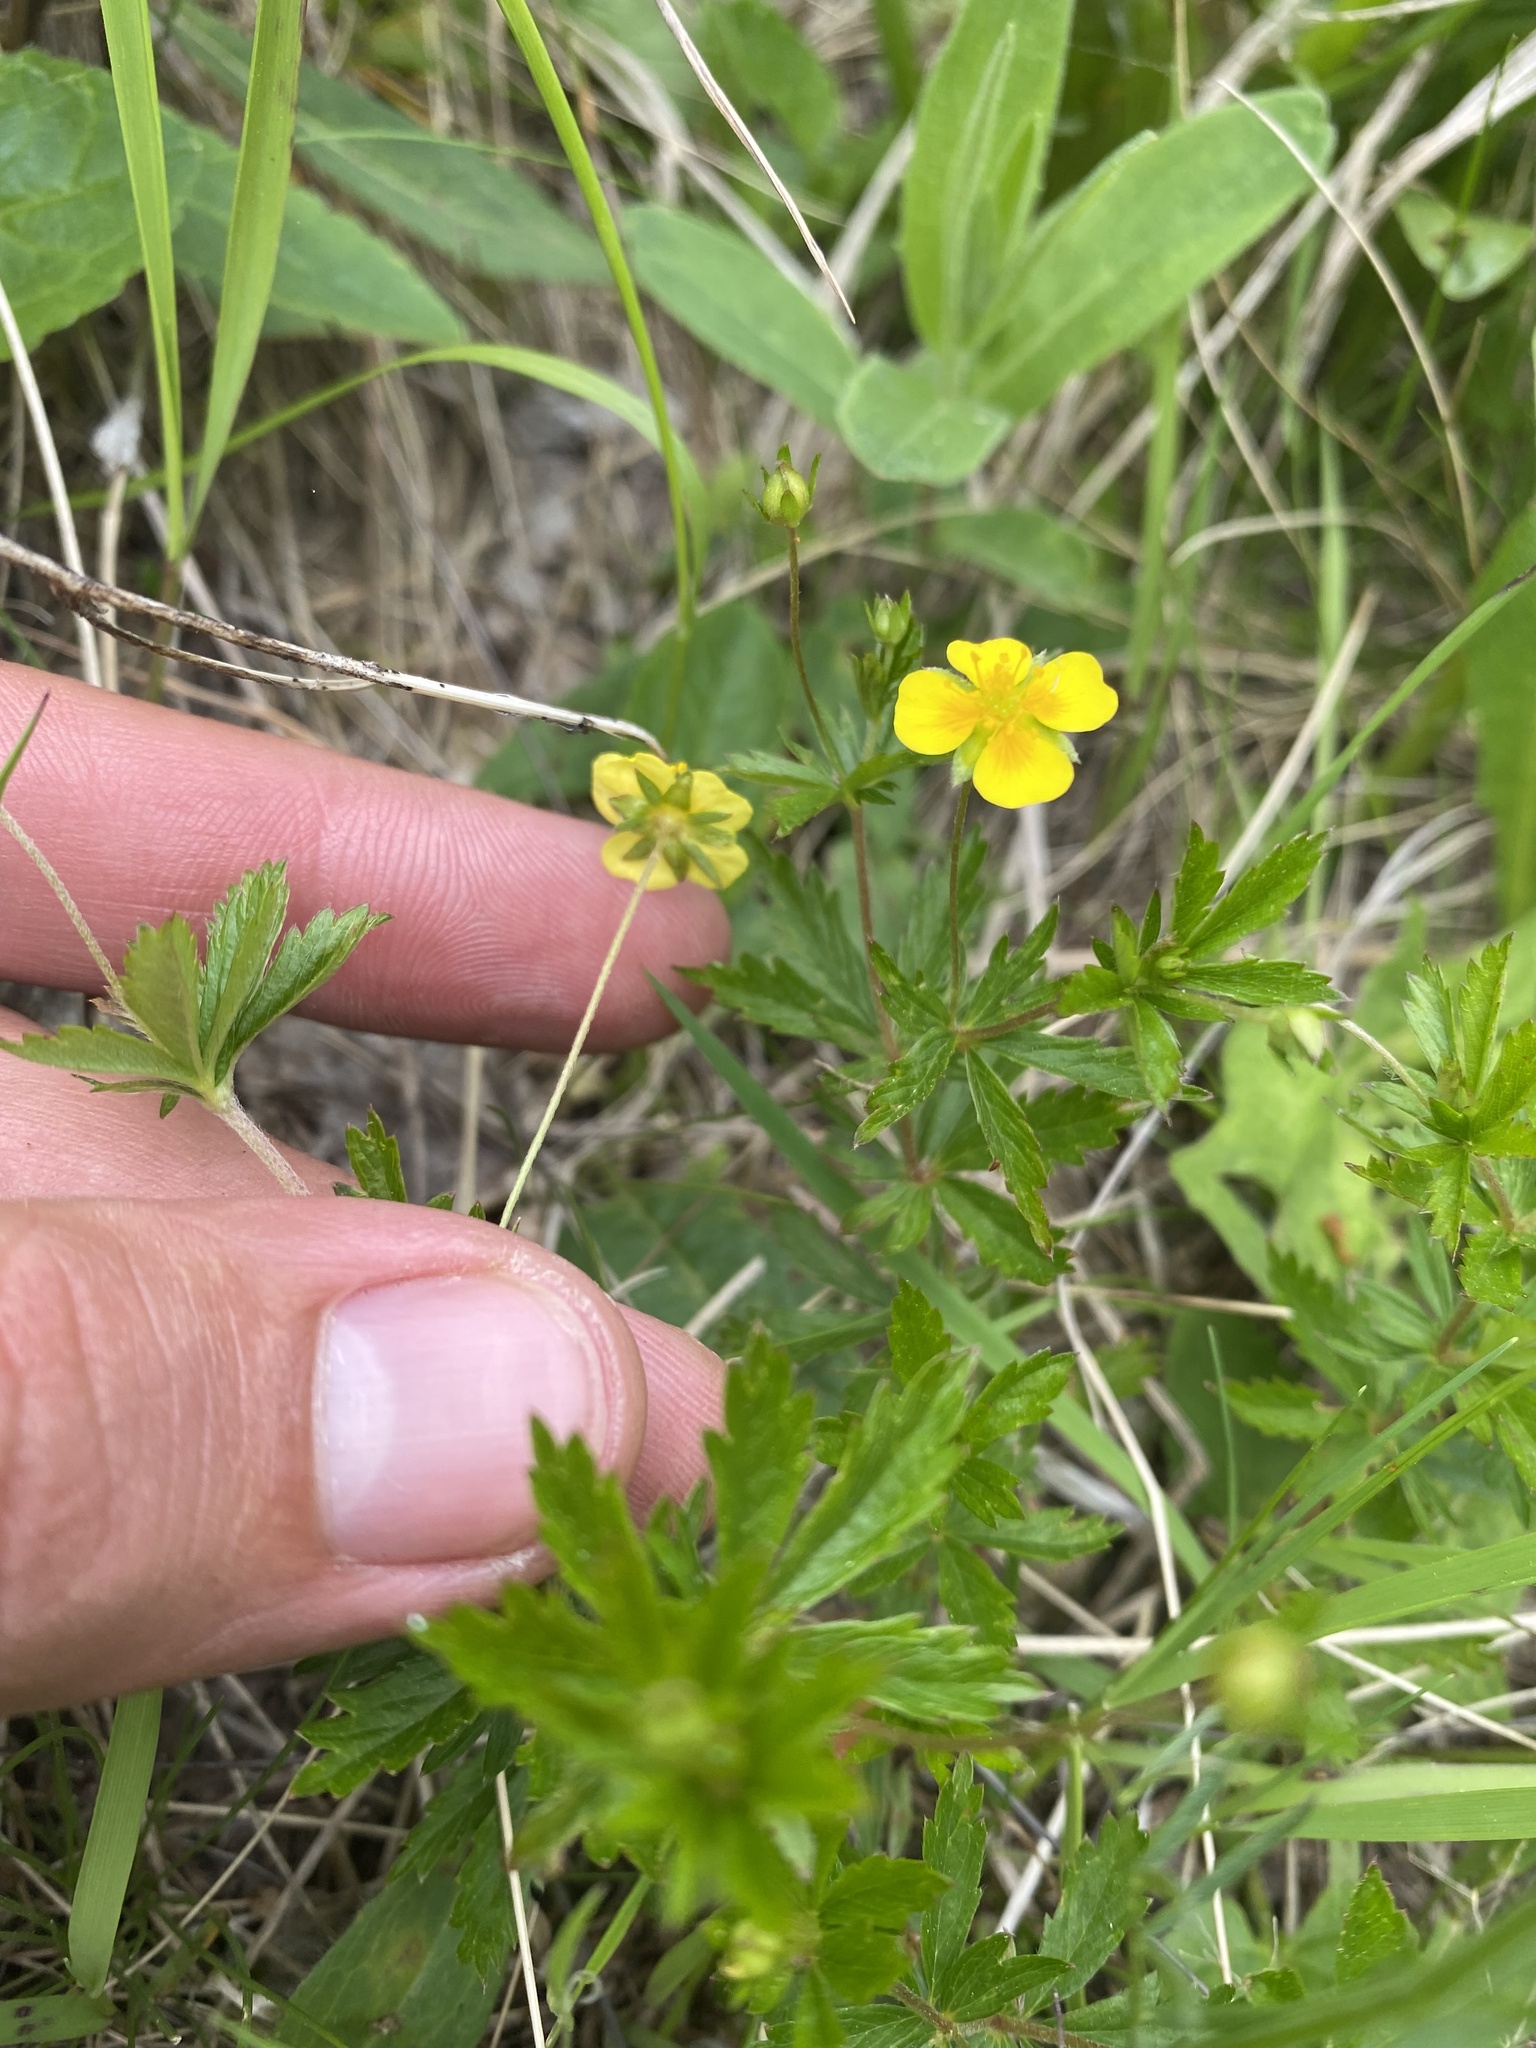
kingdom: Plantae
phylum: Tracheophyta
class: Magnoliopsida
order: Rosales
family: Rosaceae
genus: Potentilla
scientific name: Potentilla erecta
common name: Tormentil
